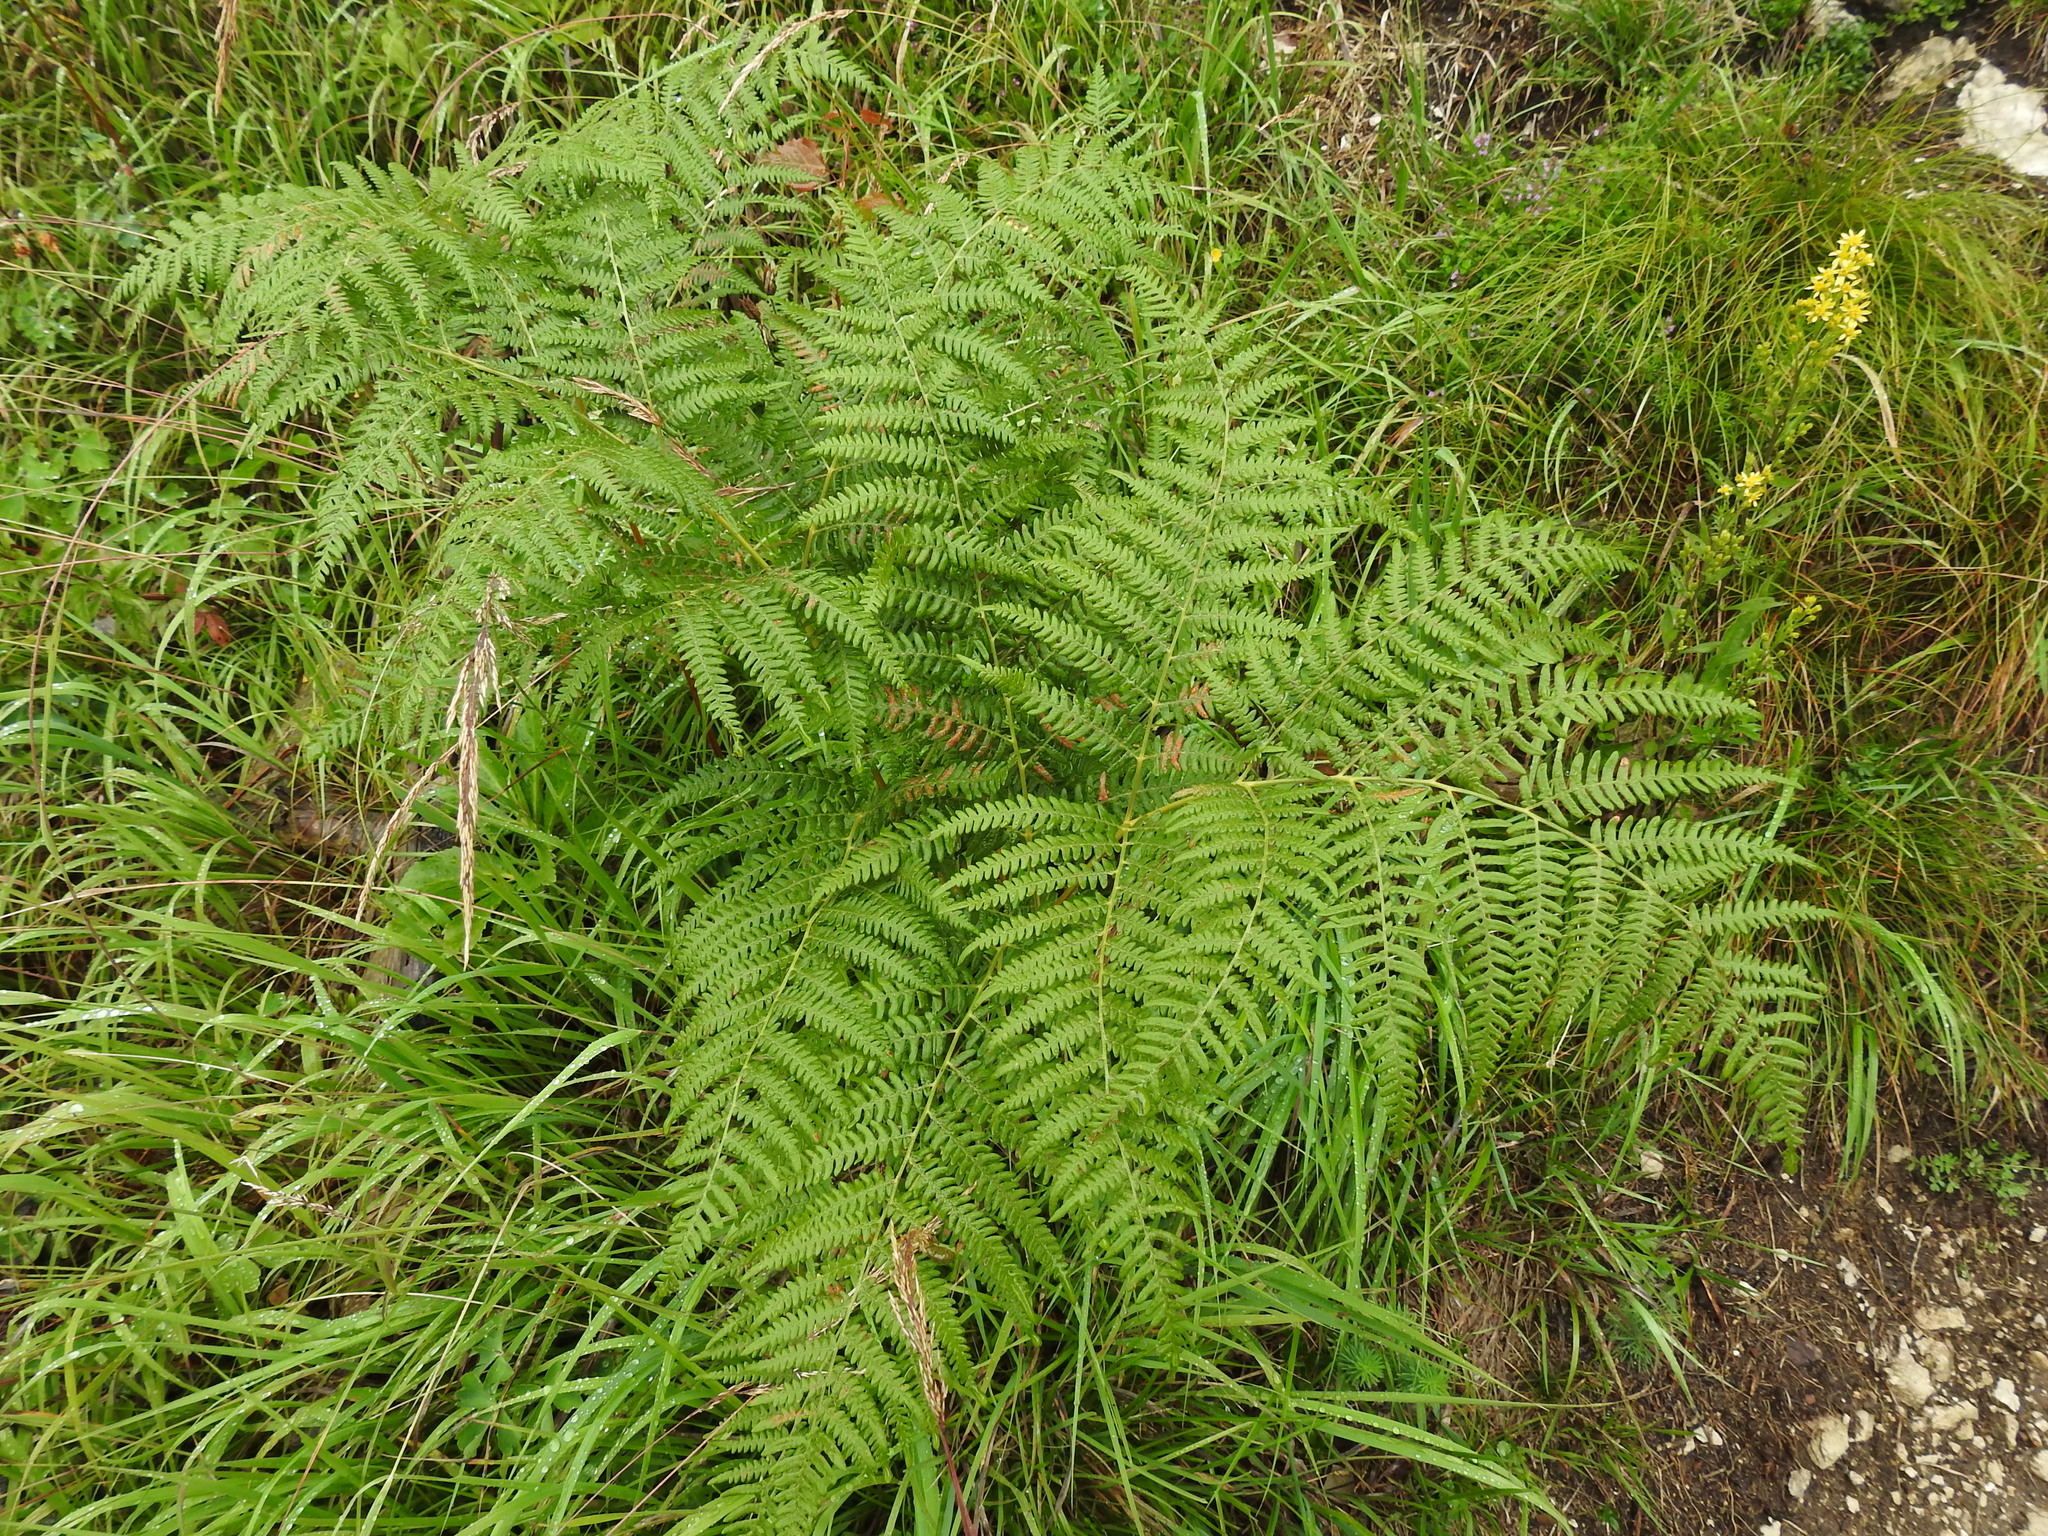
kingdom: Plantae
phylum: Tracheophyta
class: Polypodiopsida
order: Polypodiales
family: Dennstaedtiaceae
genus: Pteridium
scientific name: Pteridium aquilinum
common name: Bracken
